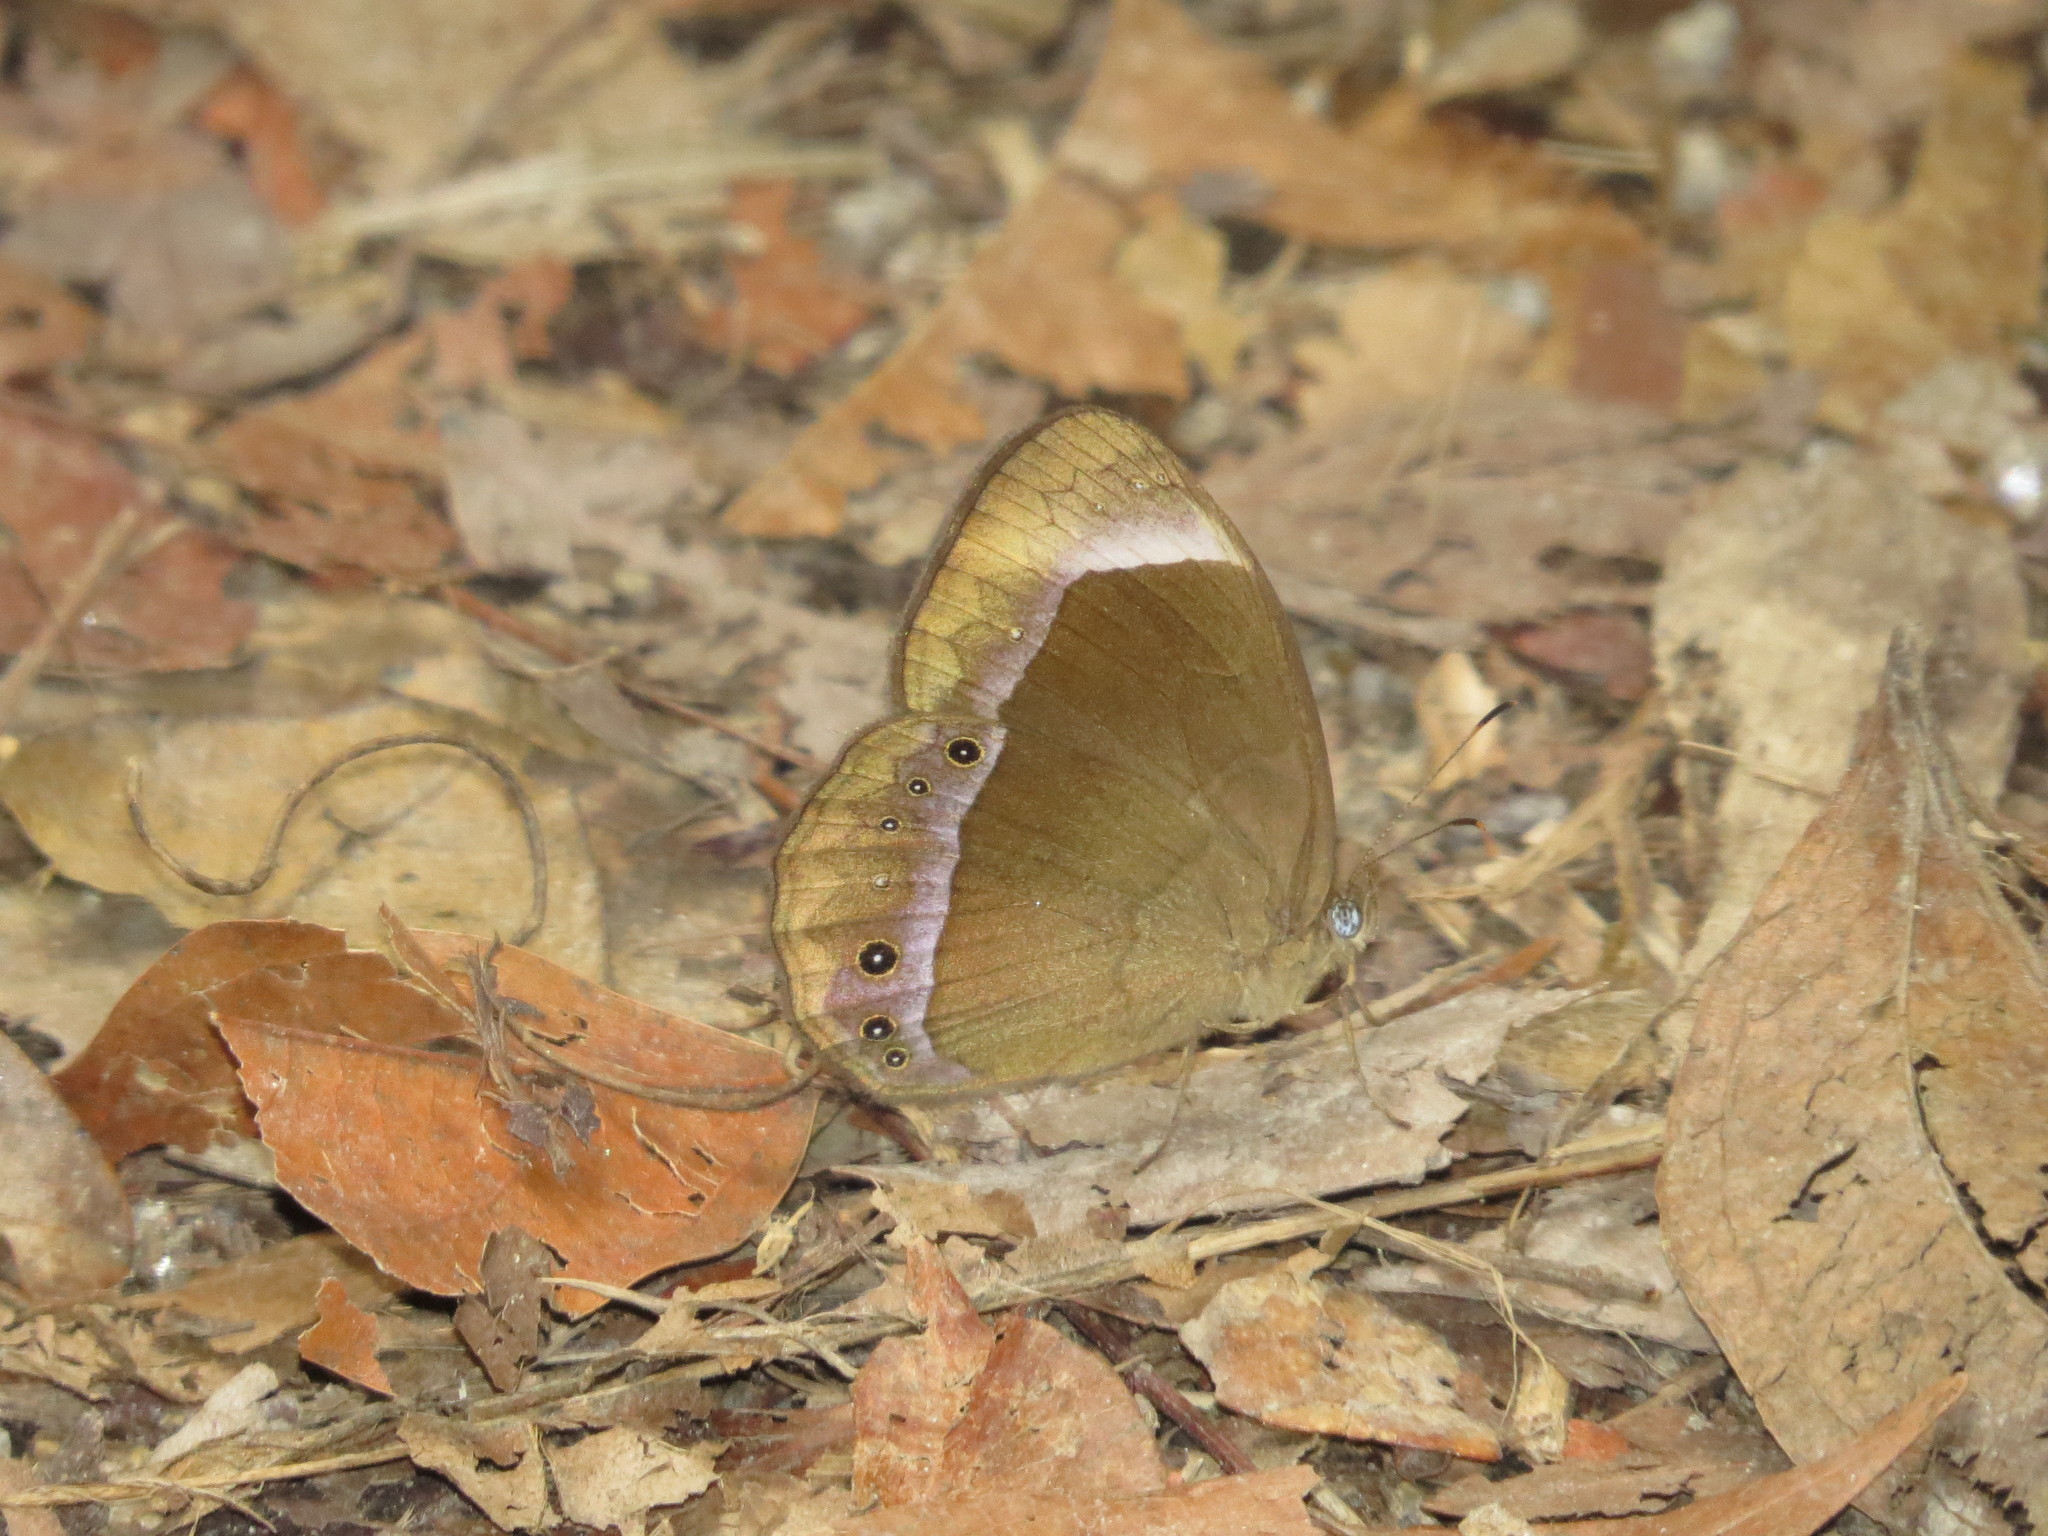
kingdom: Animalia
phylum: Arthropoda
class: Insecta
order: Lepidoptera
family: Nymphalidae
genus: Mycalesis
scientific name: Mycalesis anaxias
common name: White-bar bushbrown
